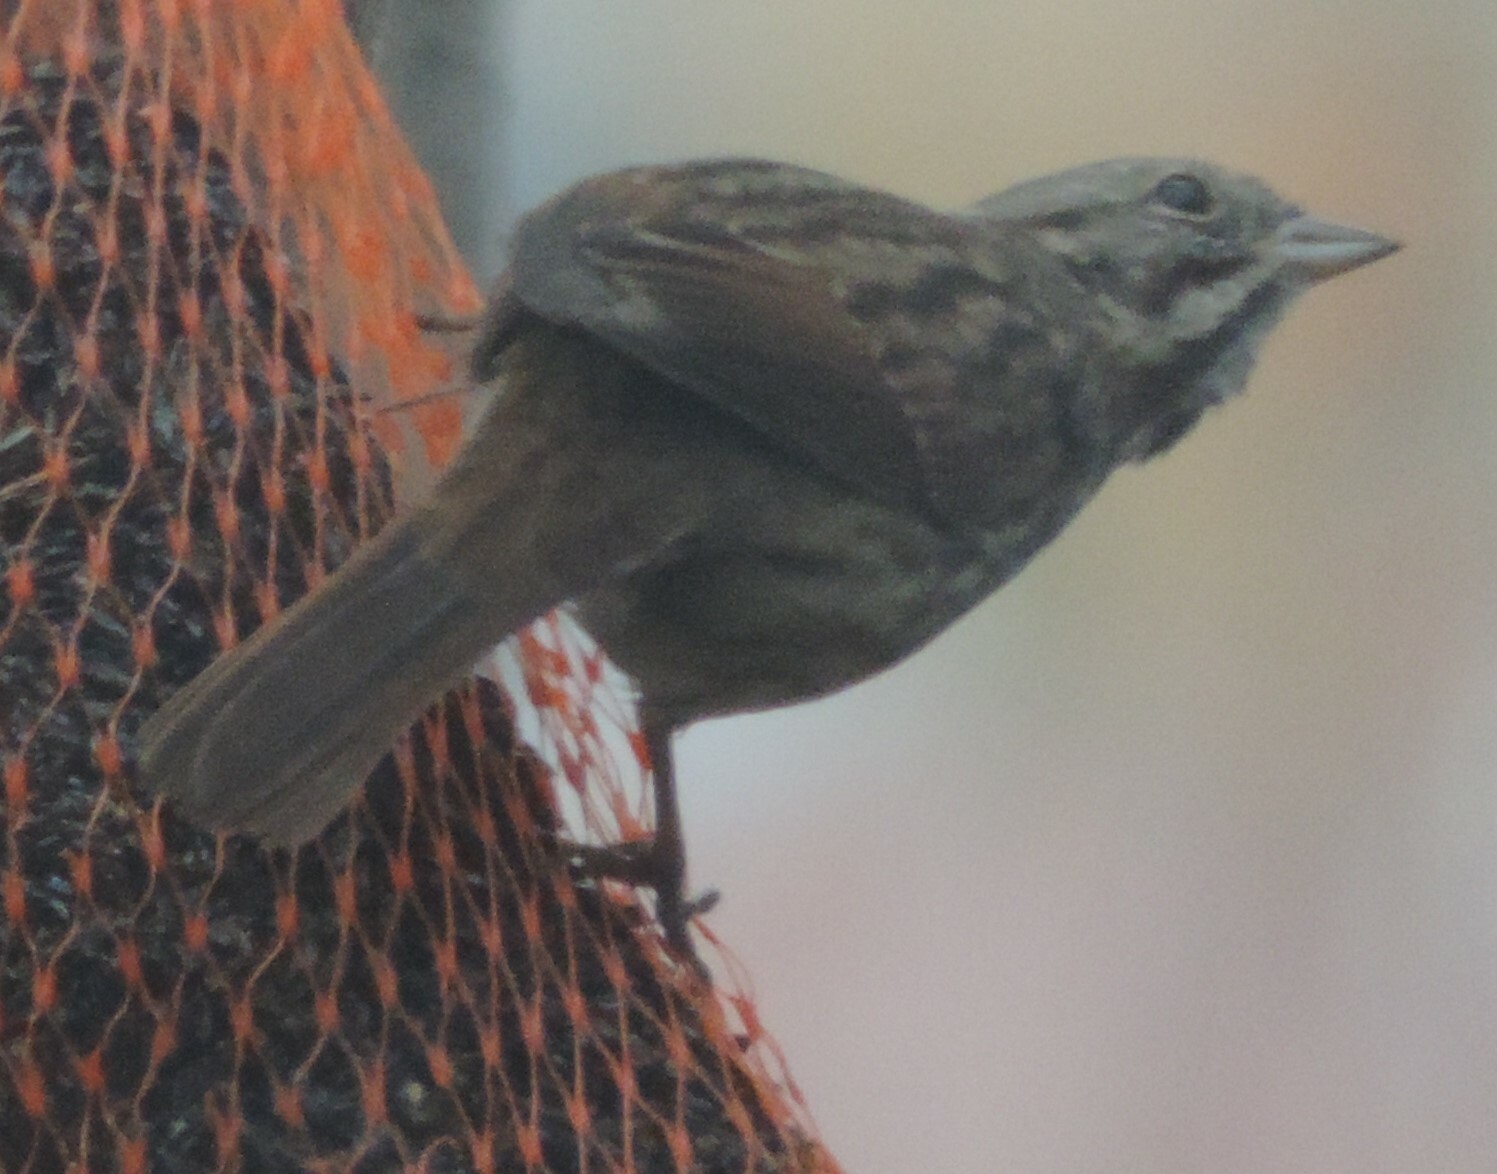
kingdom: Animalia
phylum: Chordata
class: Aves
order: Passeriformes
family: Passerellidae
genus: Melospiza
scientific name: Melospiza melodia
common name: Song sparrow
